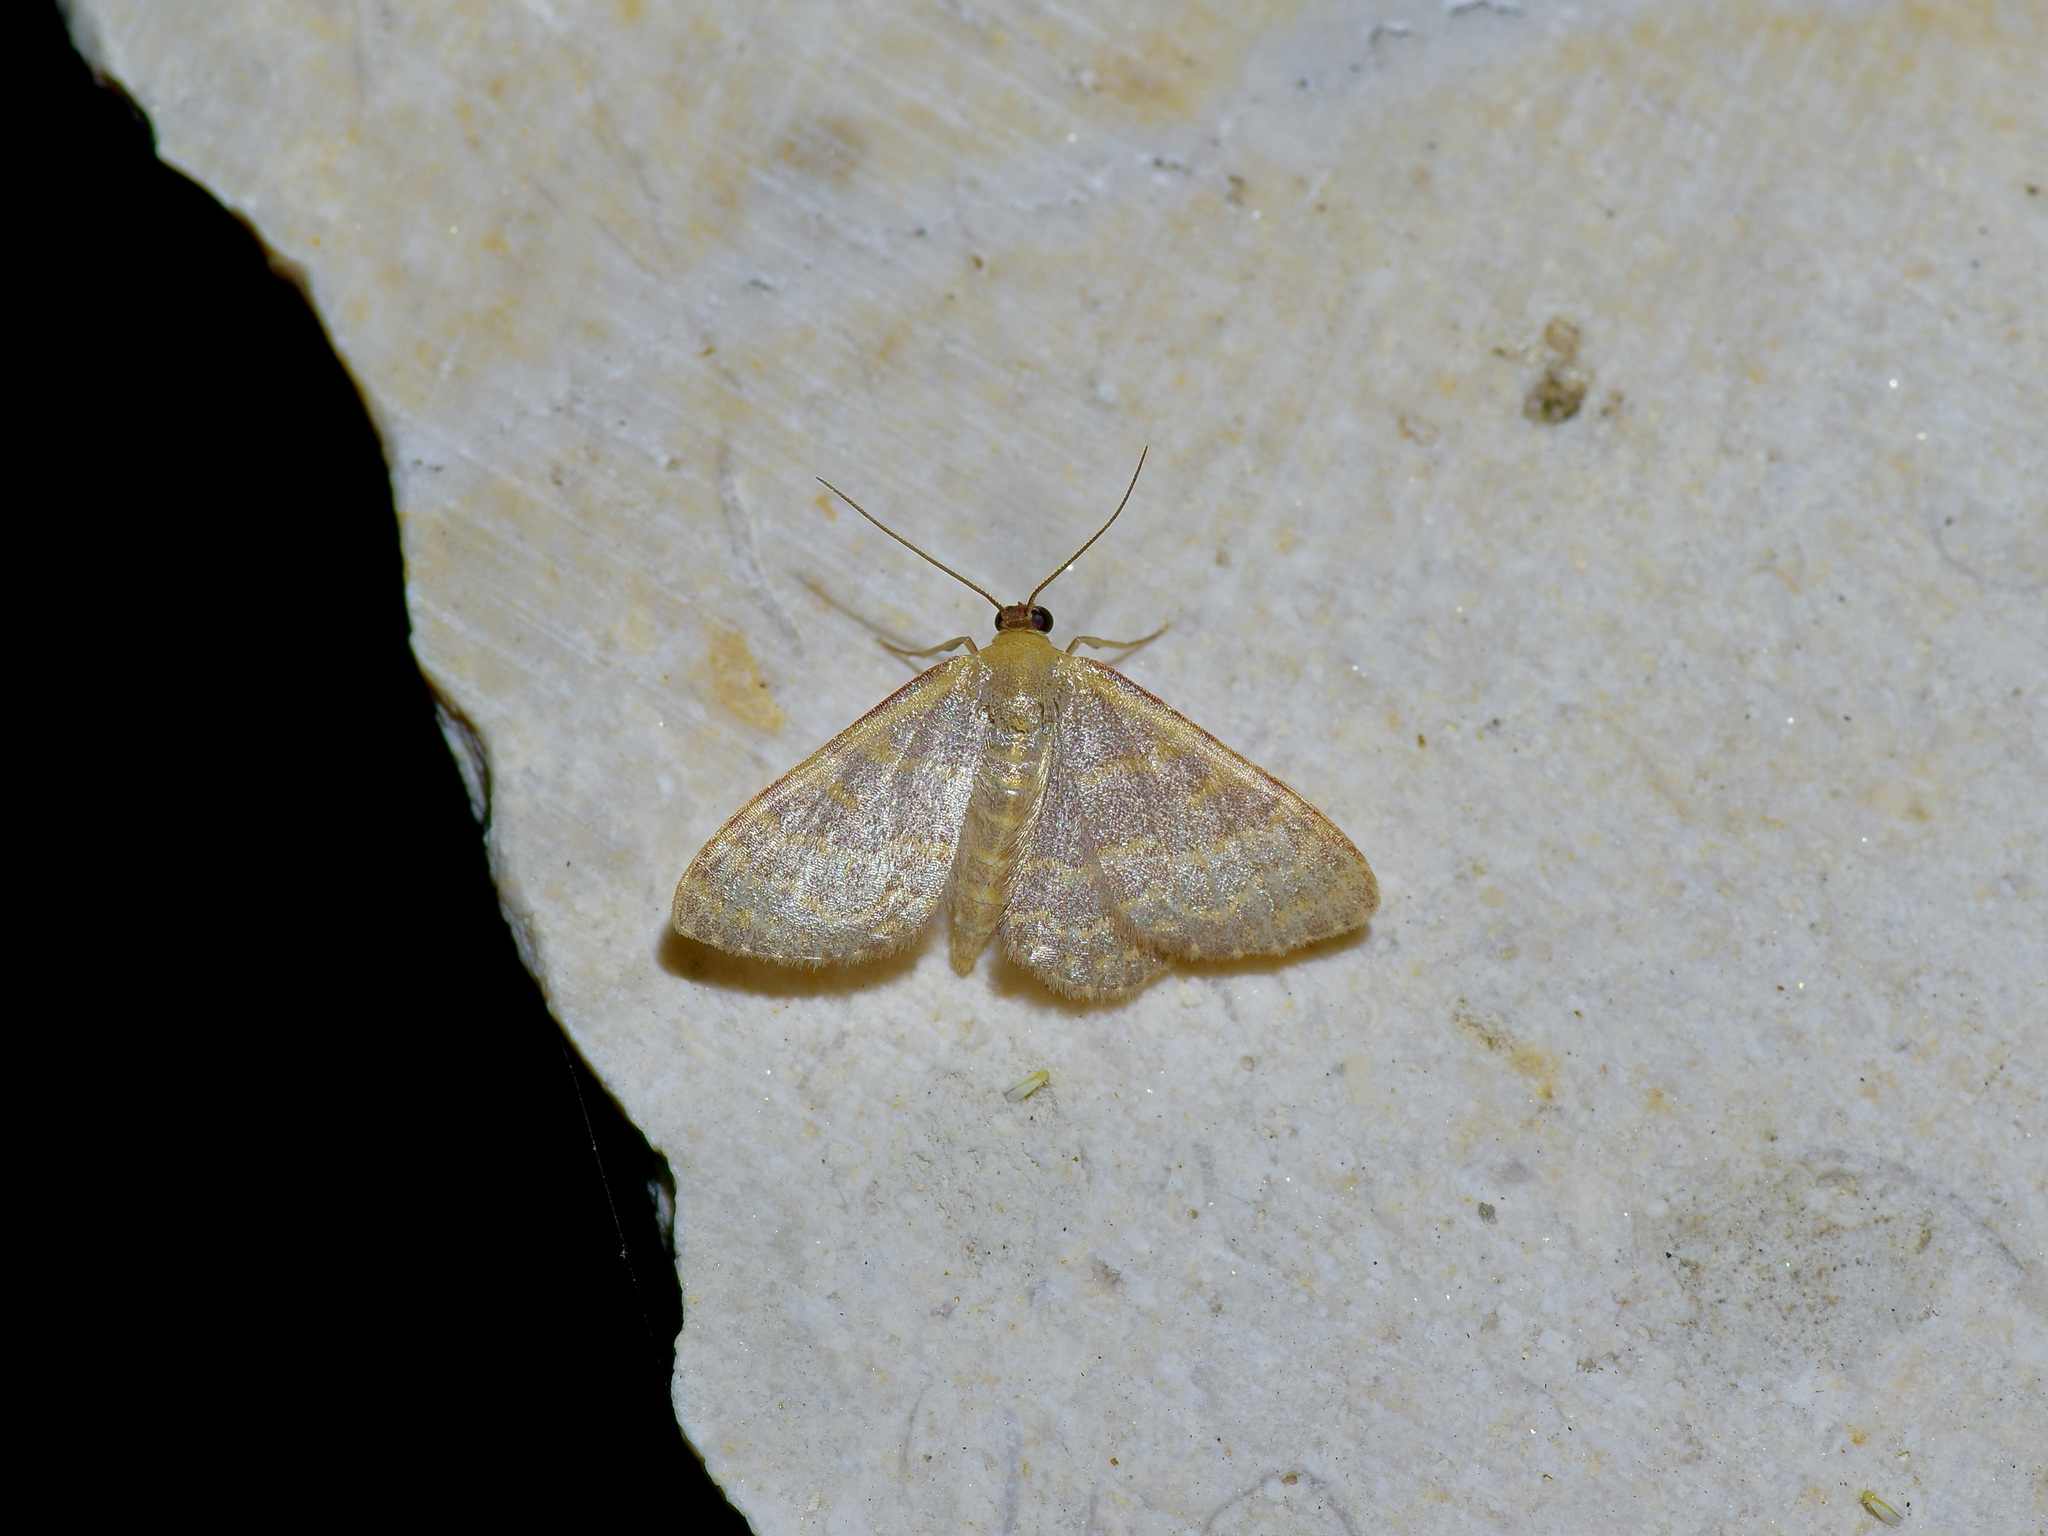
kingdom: Animalia
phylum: Arthropoda
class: Insecta
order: Lepidoptera
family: Geometridae
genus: Leptostales
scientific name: Leptostales pannaria
